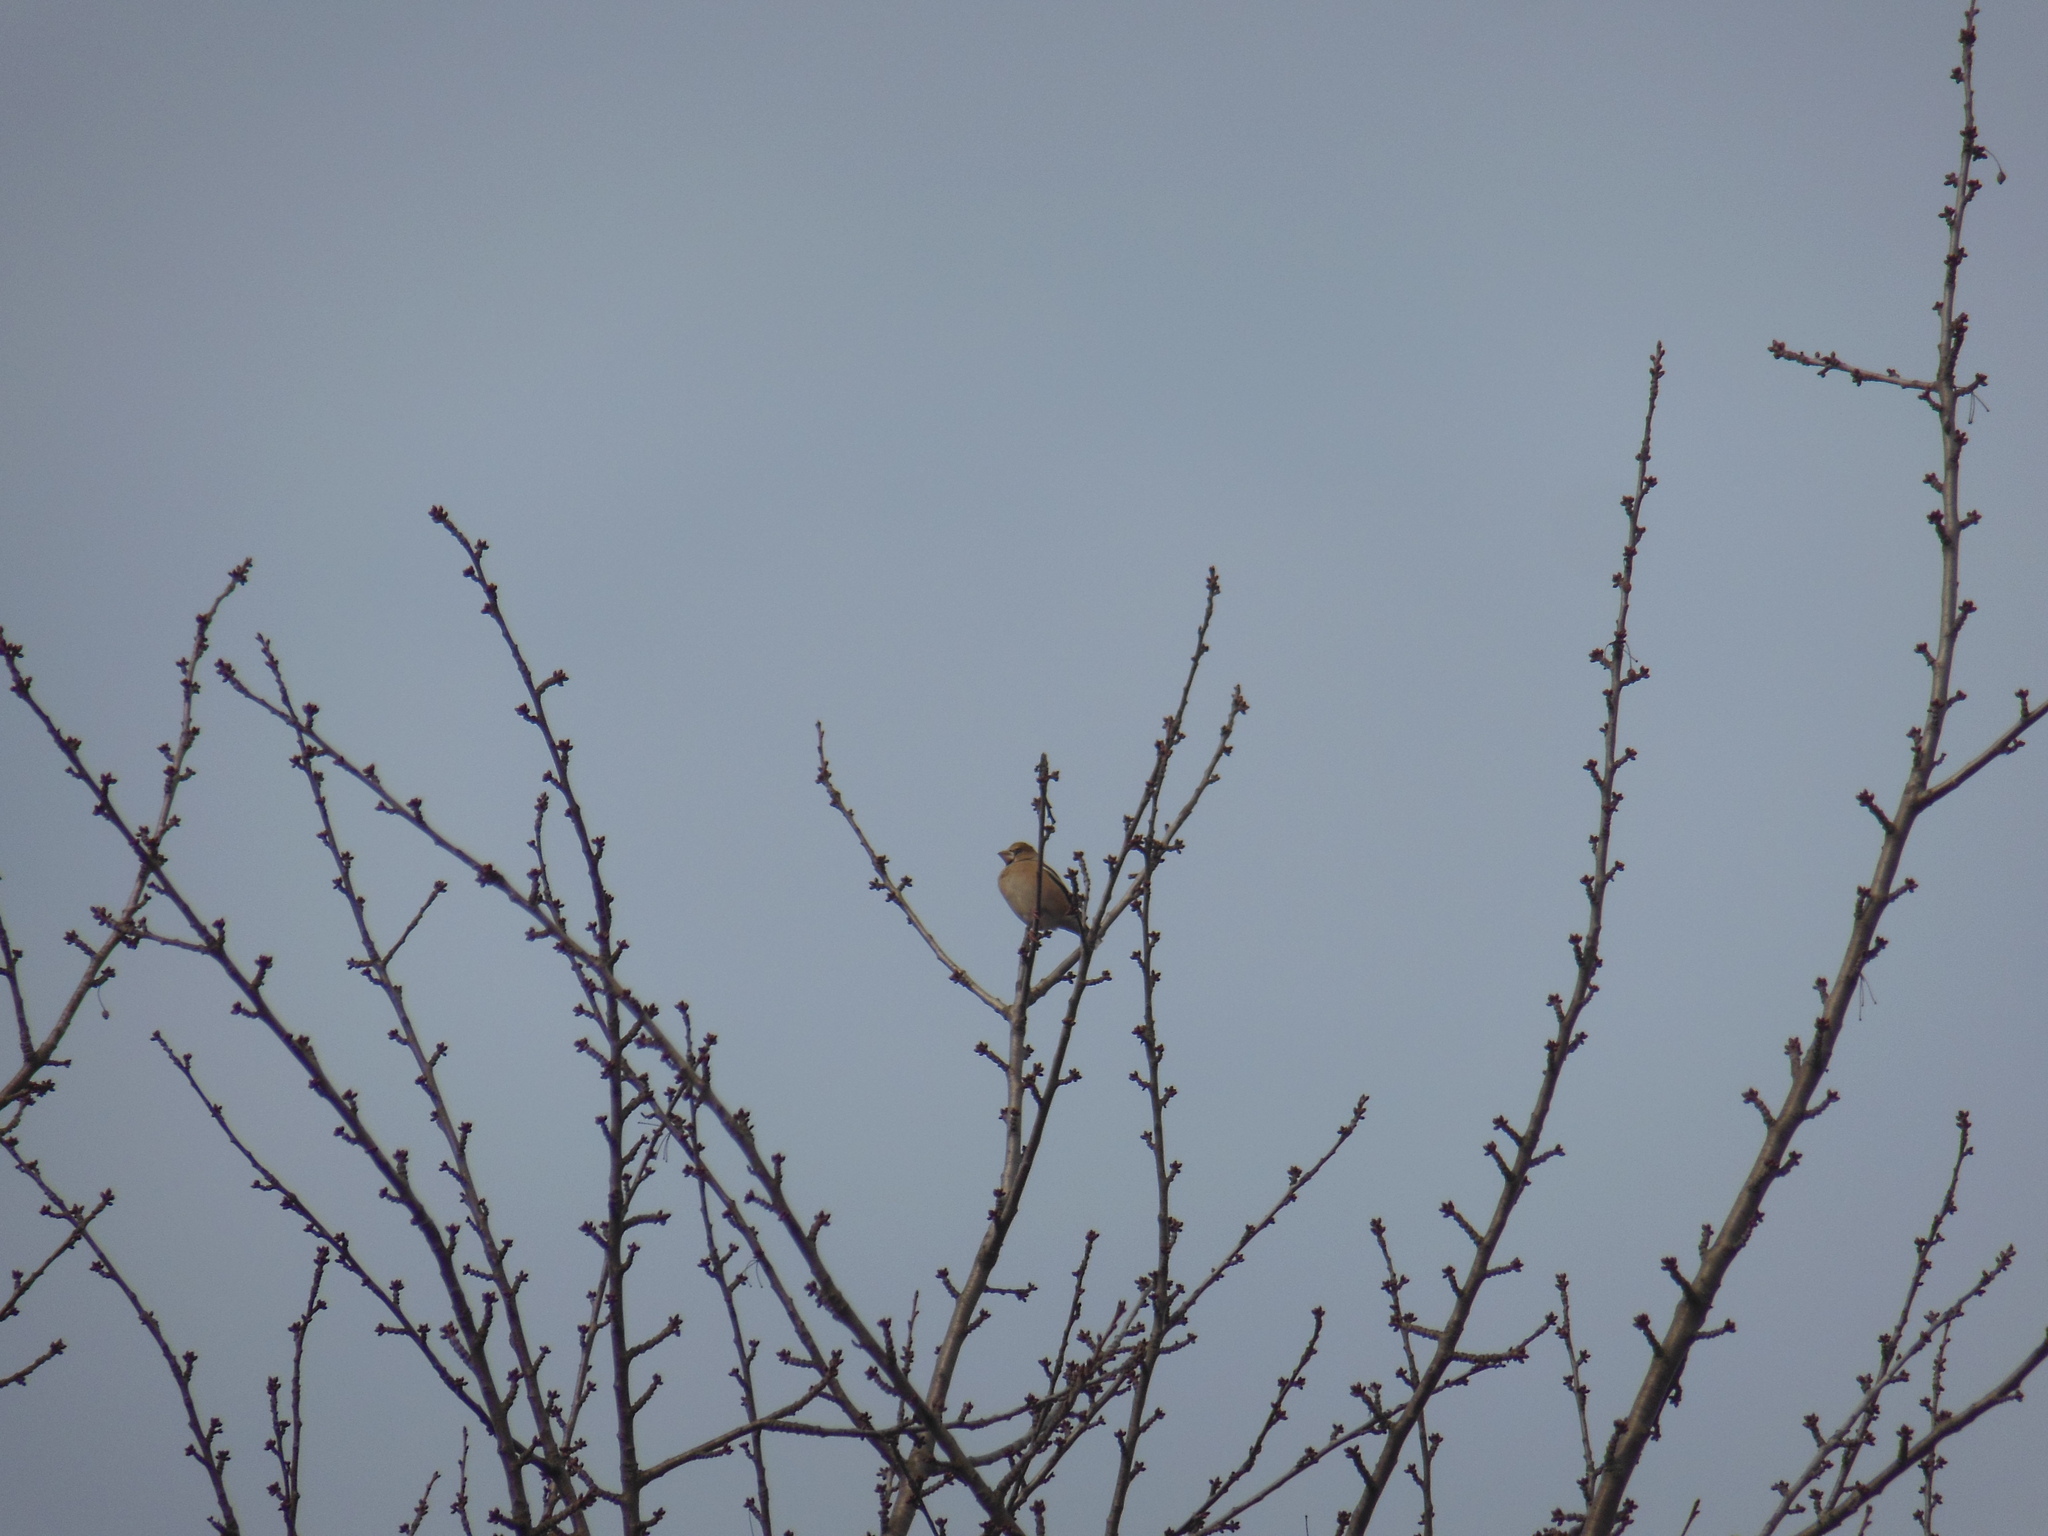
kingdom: Animalia
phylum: Chordata
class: Aves
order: Passeriformes
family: Fringillidae
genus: Coccothraustes
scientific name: Coccothraustes coccothraustes
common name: Hawfinch
